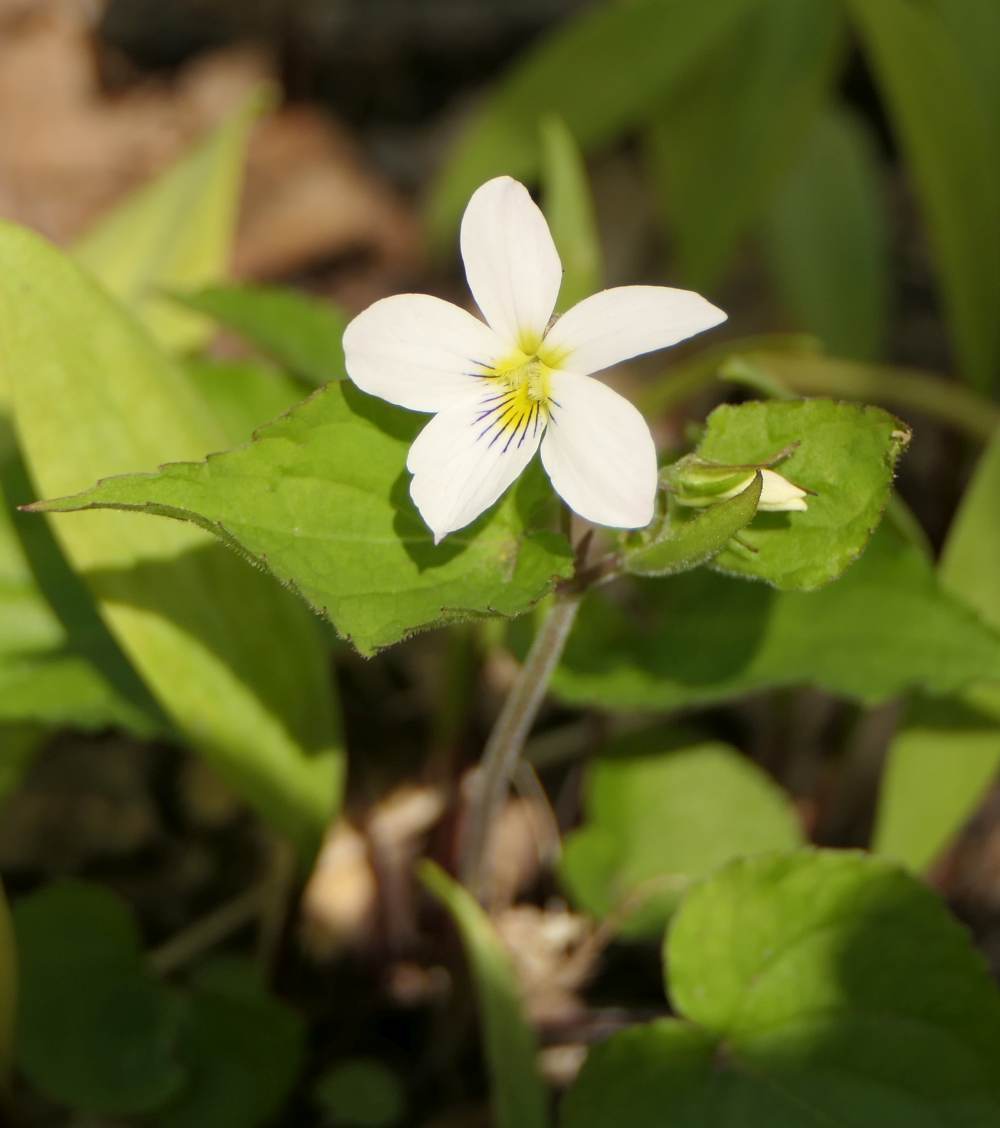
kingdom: Plantae
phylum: Tracheophyta
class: Magnoliopsida
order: Malpighiales
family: Violaceae
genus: Viola
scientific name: Viola canadensis
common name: Canada violet
